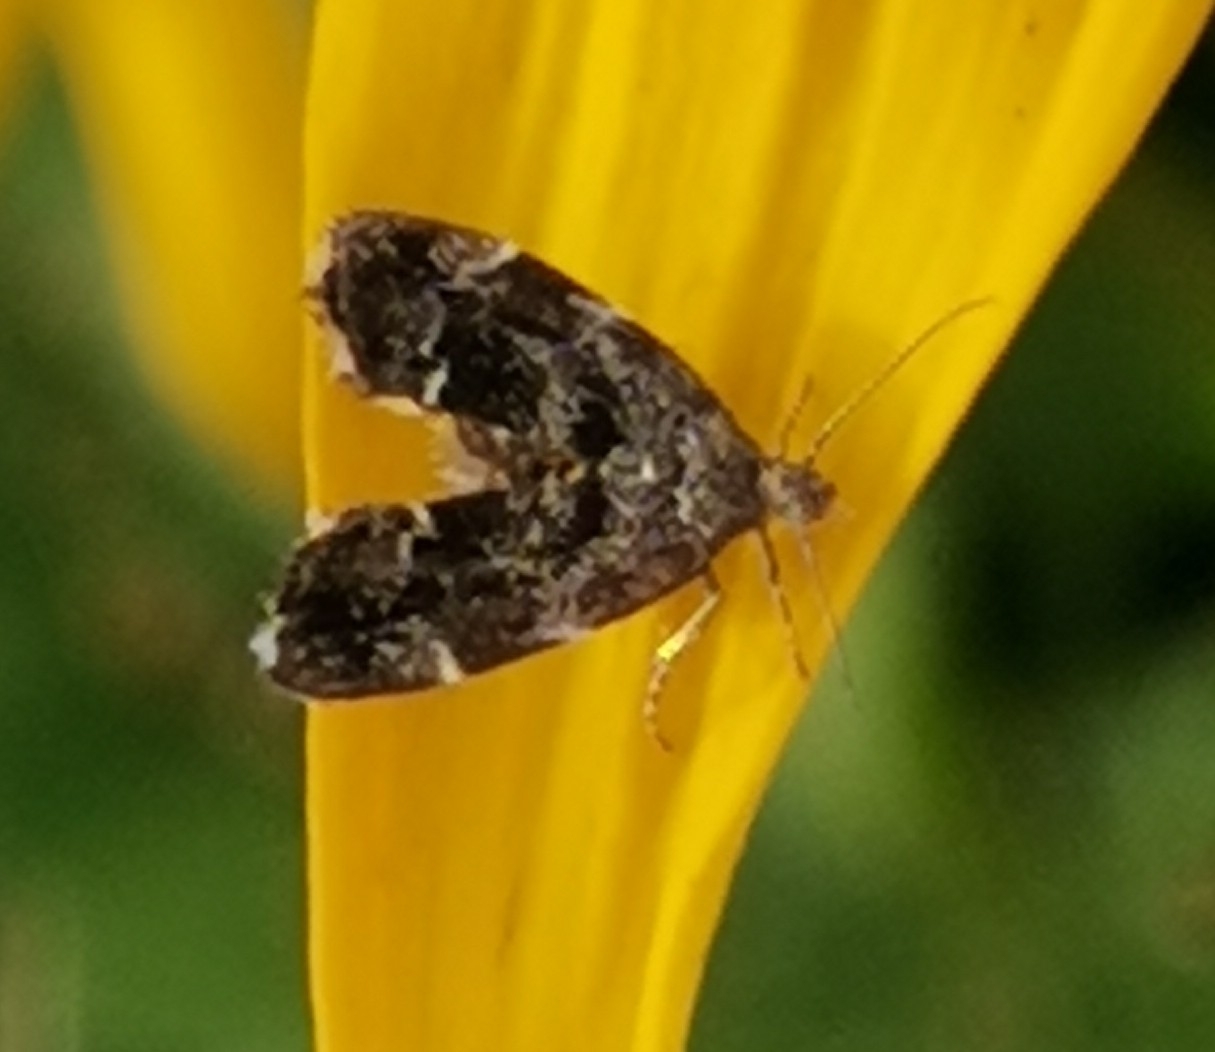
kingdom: Animalia
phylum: Arthropoda
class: Insecta
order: Lepidoptera
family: Choreutidae
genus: Anthophila
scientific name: Anthophila fabriciana
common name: Nettle-tap
